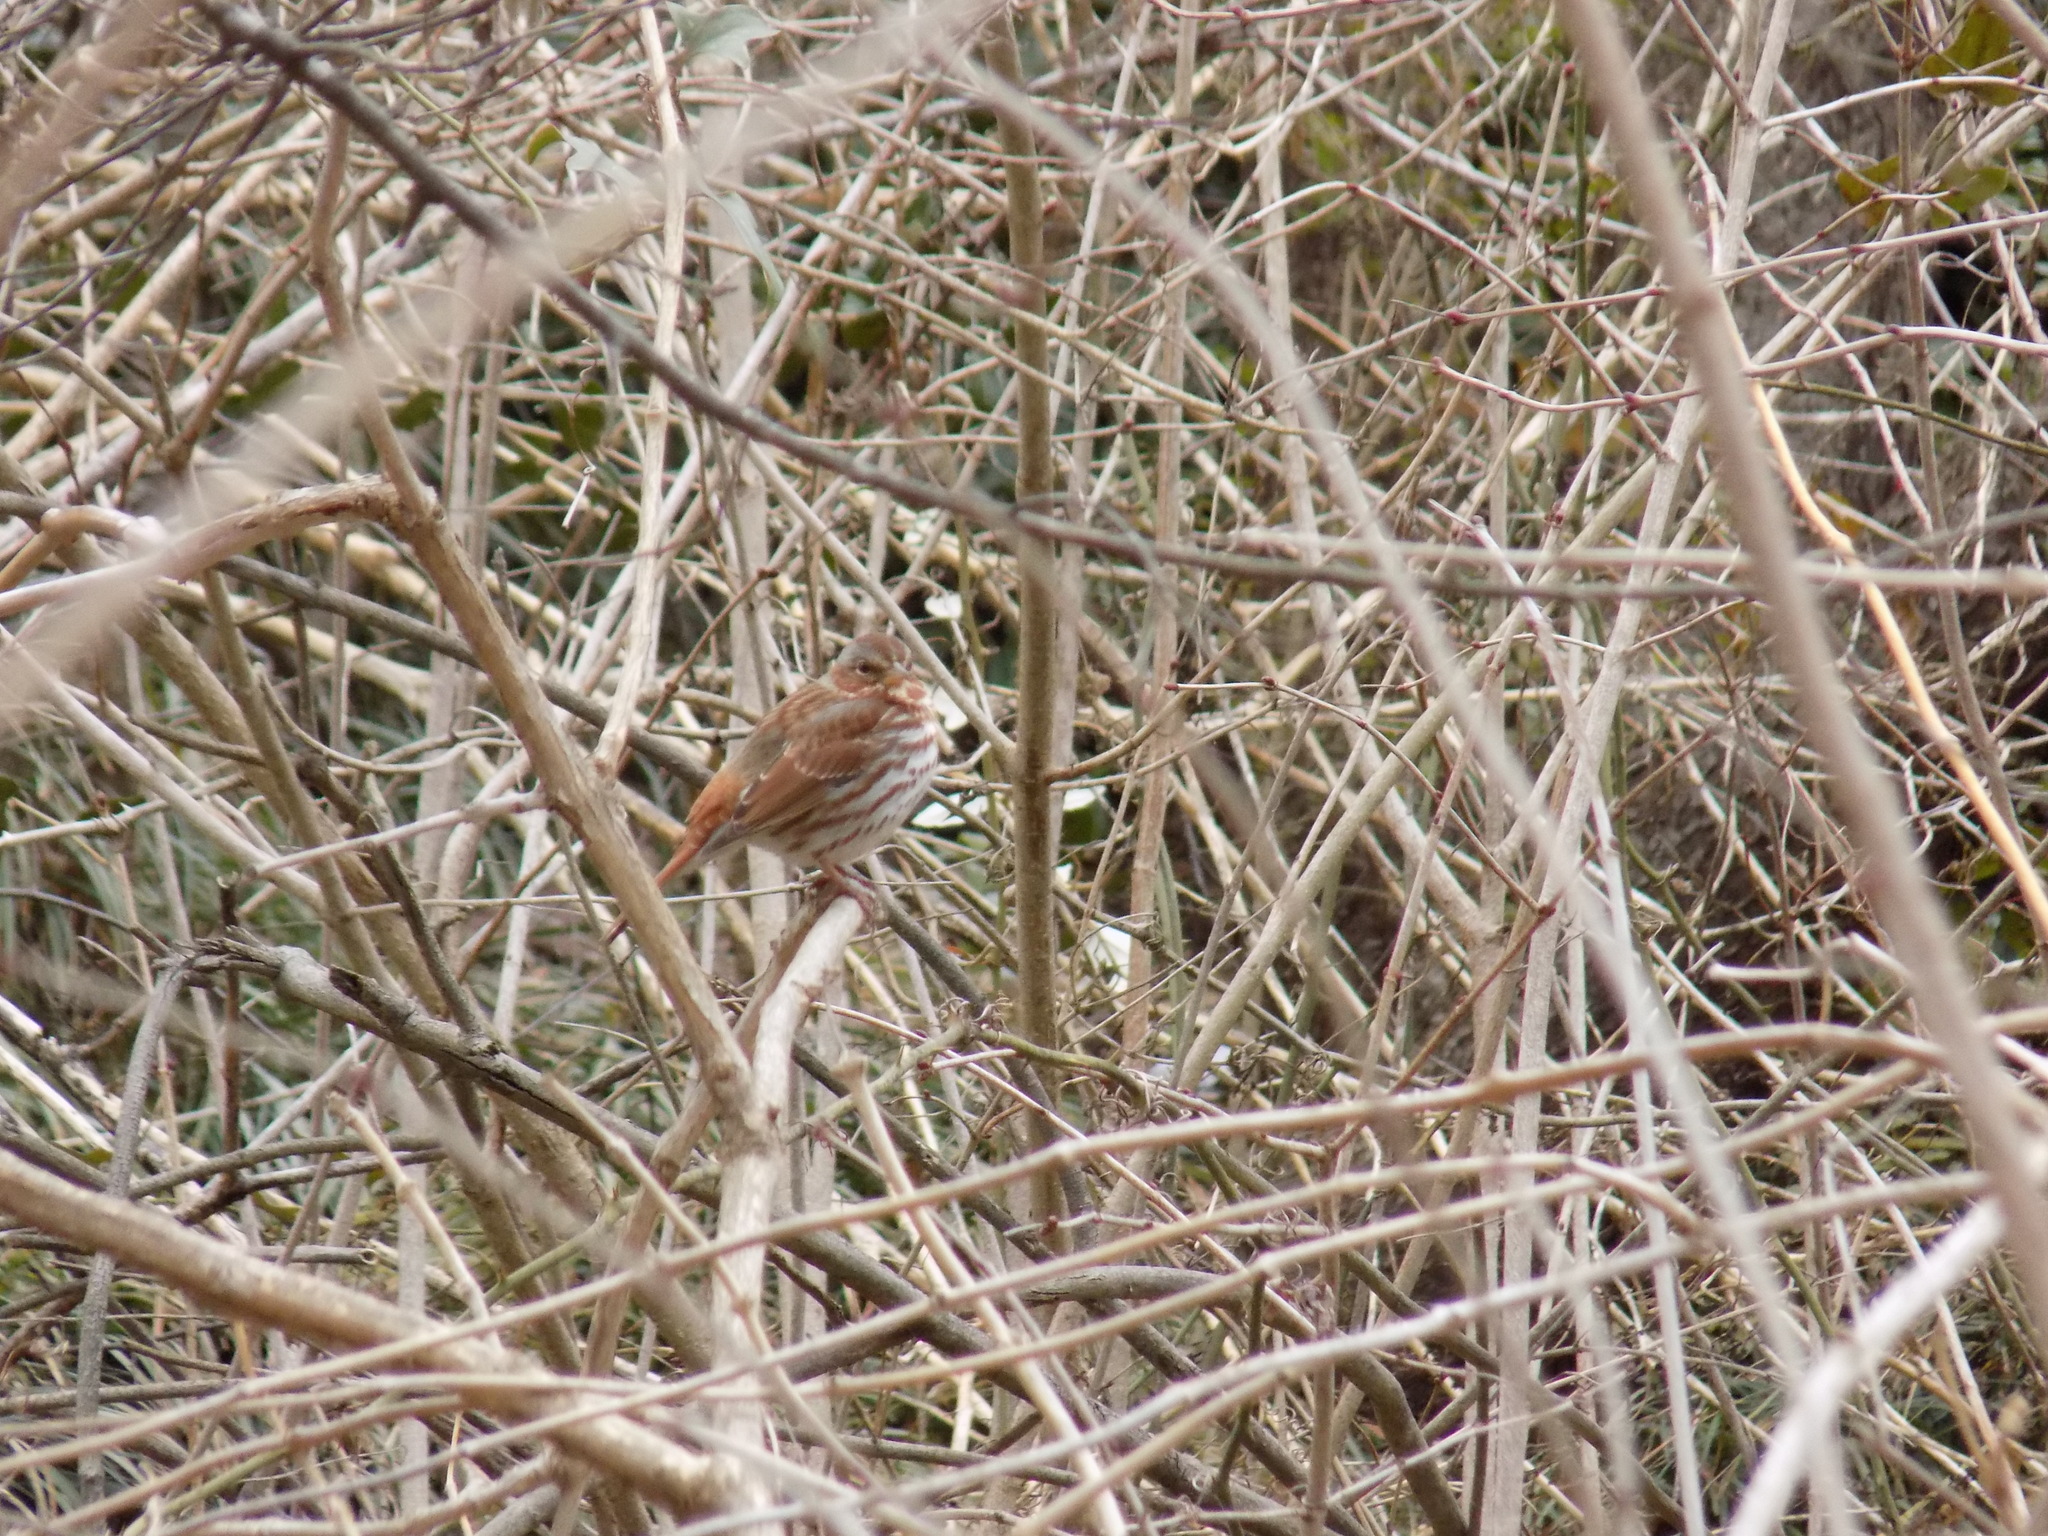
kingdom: Animalia
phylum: Chordata
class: Aves
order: Passeriformes
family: Passerellidae
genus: Passerella
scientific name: Passerella iliaca
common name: Fox sparrow
